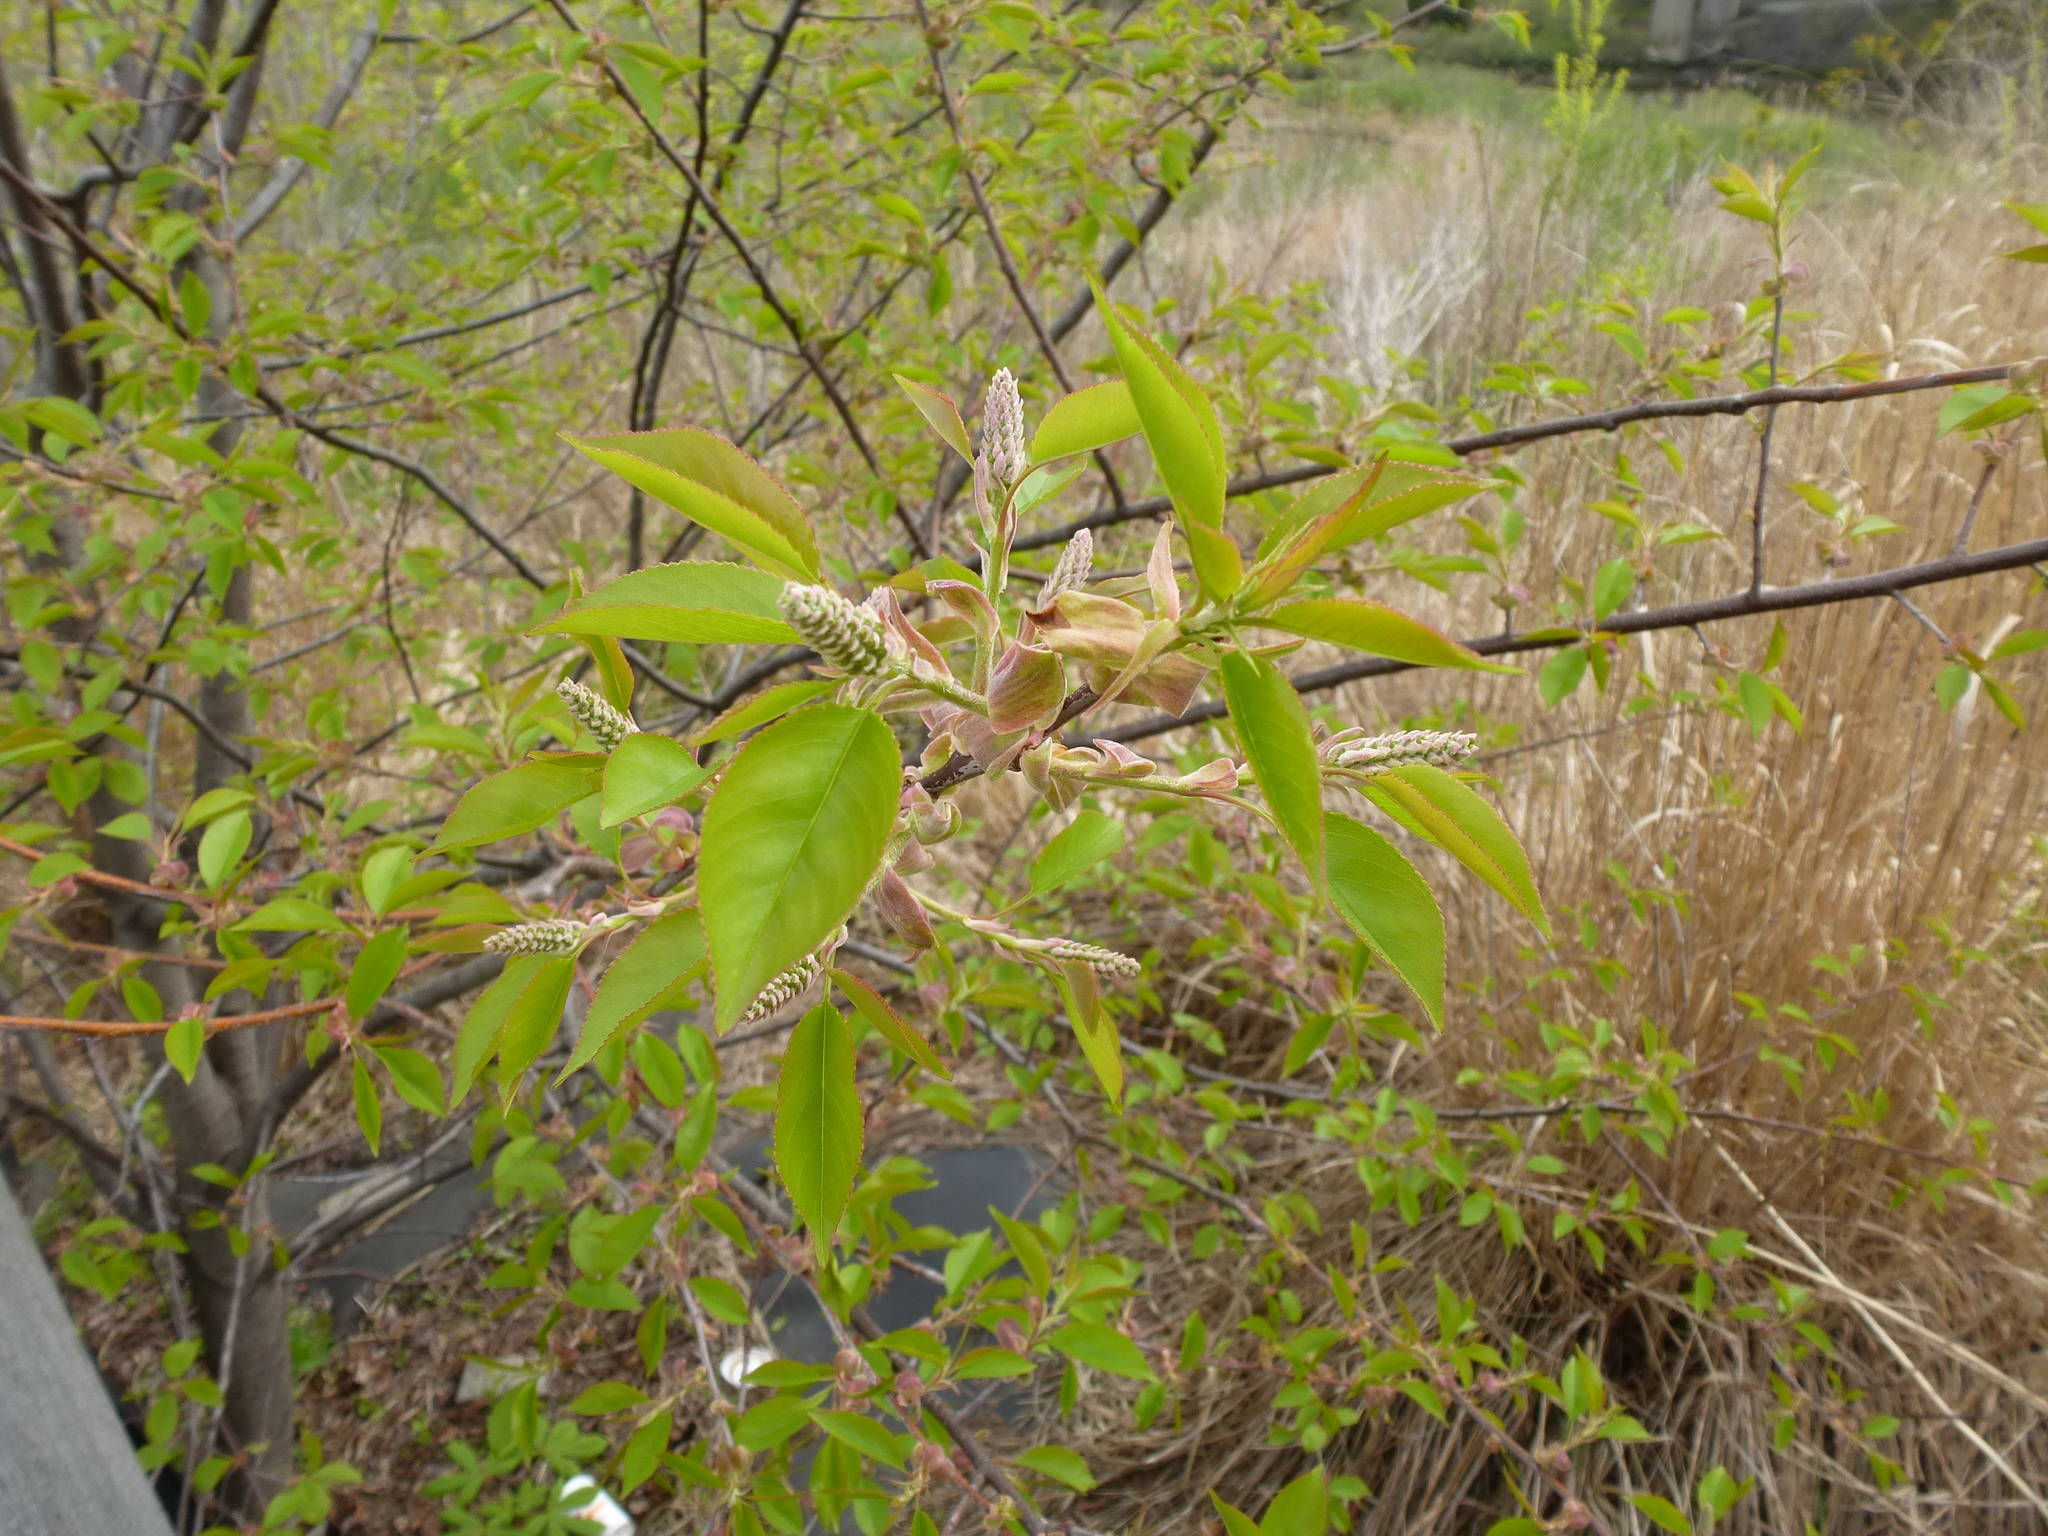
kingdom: Plantae
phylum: Tracheophyta
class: Magnoliopsida
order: Rosales
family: Rosaceae
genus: Prunus
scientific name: Prunus serotina
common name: Black cherry
